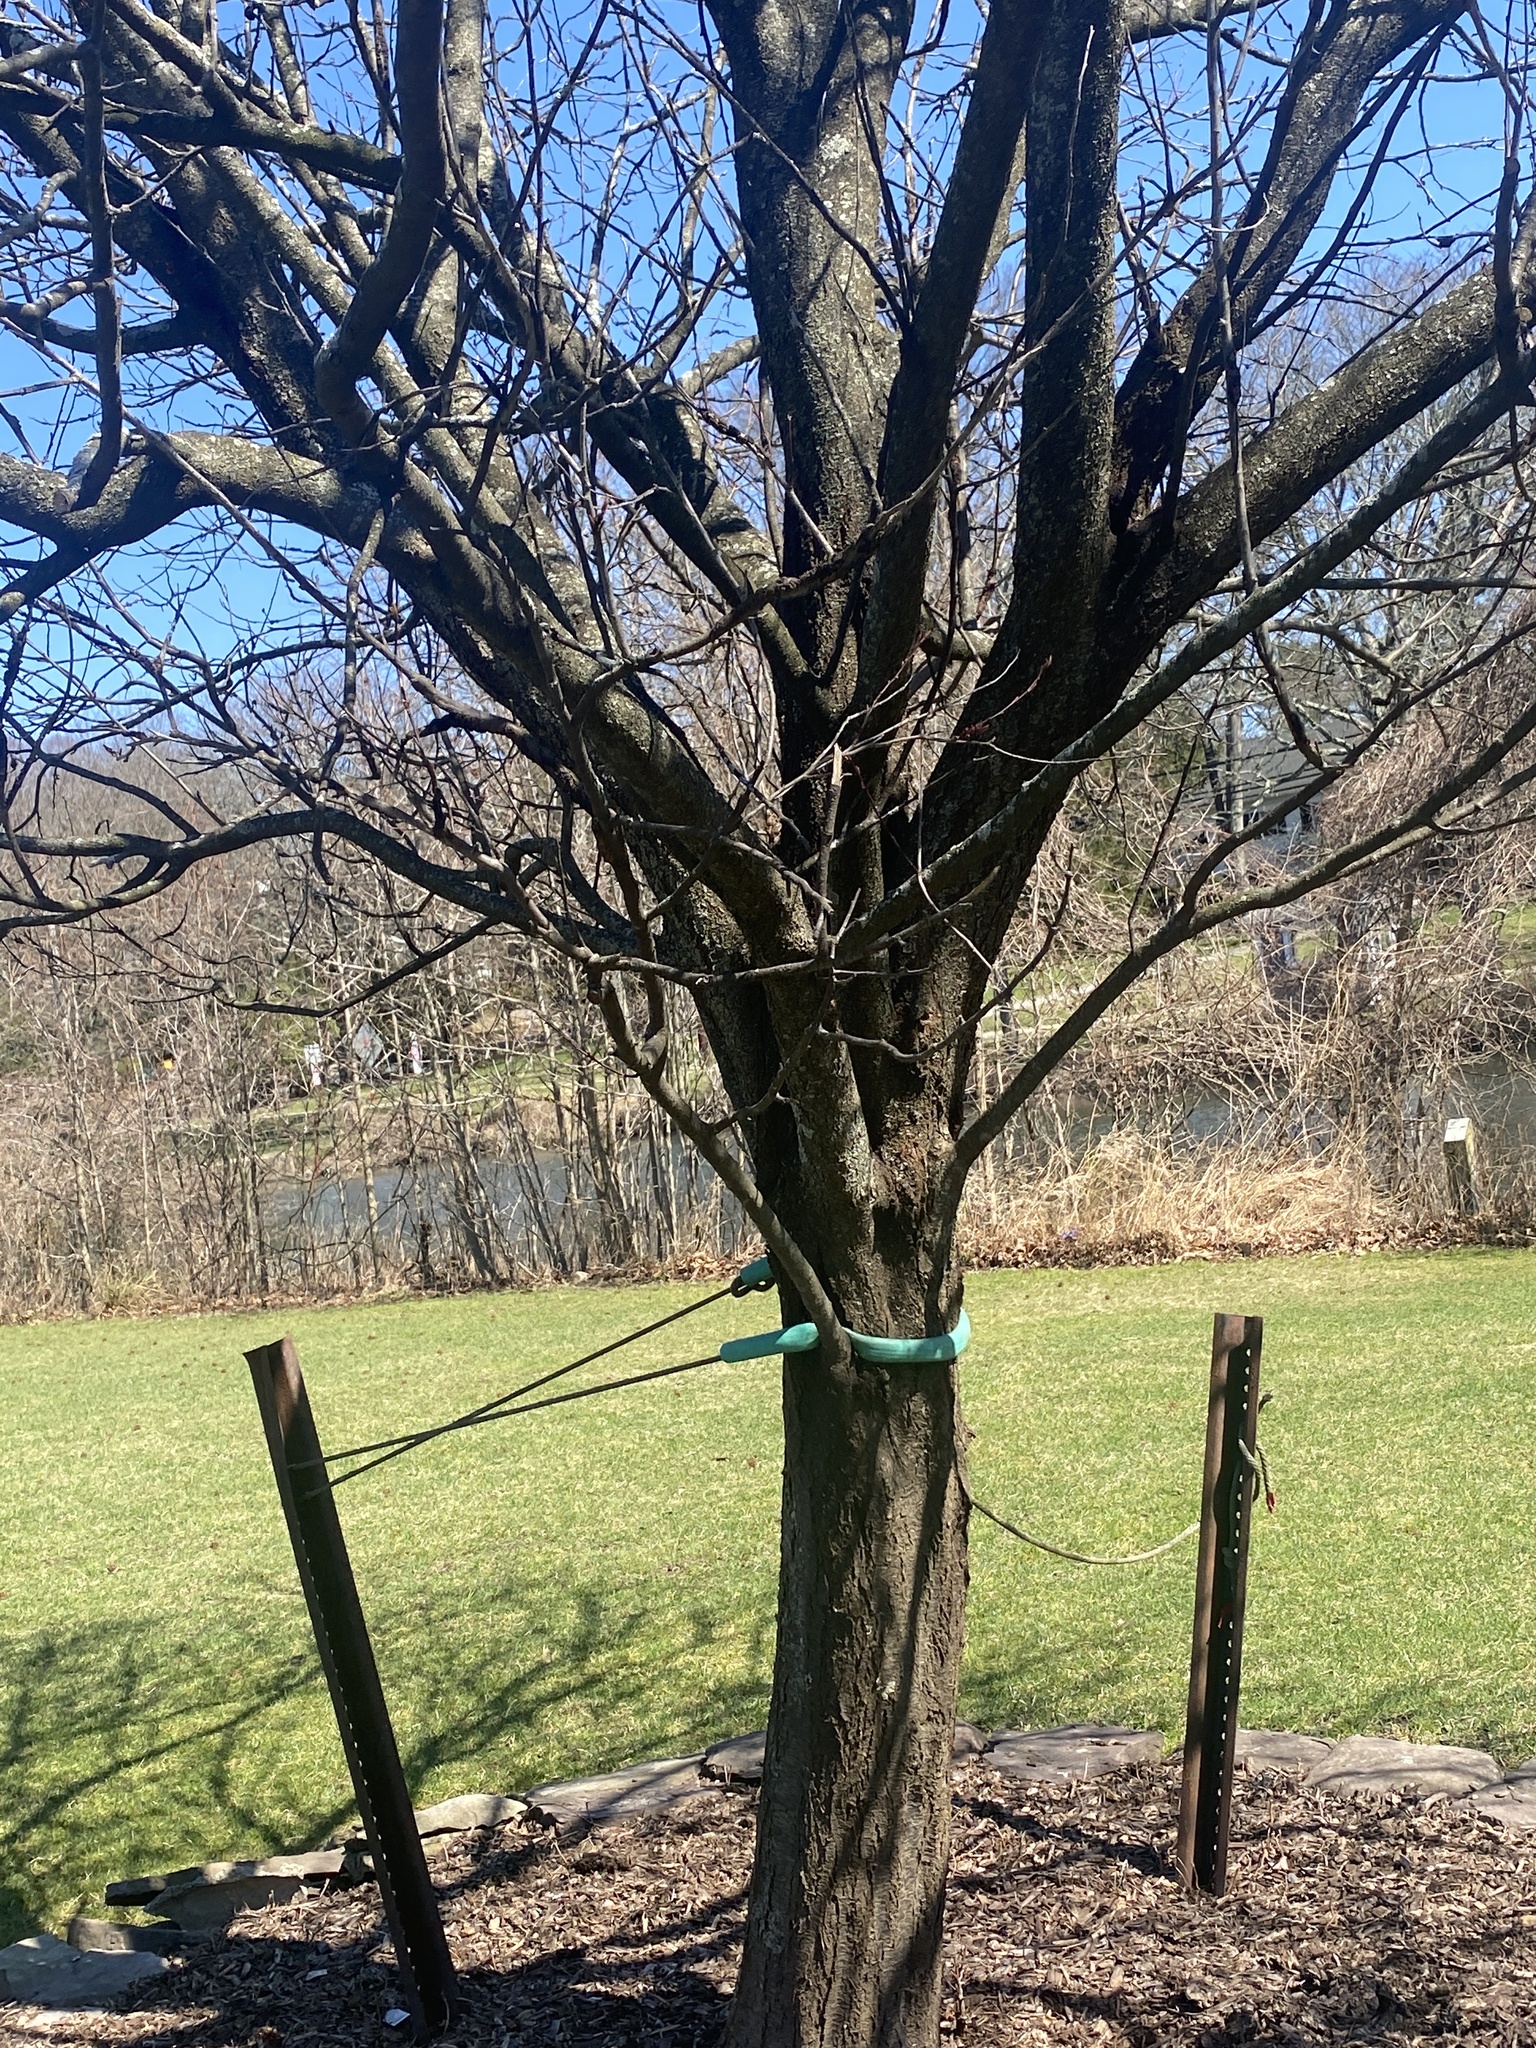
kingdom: Fungi
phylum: Ascomycota
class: Dothideomycetes
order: Venturiales
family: Venturiaceae
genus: Apiosporina
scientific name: Apiosporina morbosa
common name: Black knot
